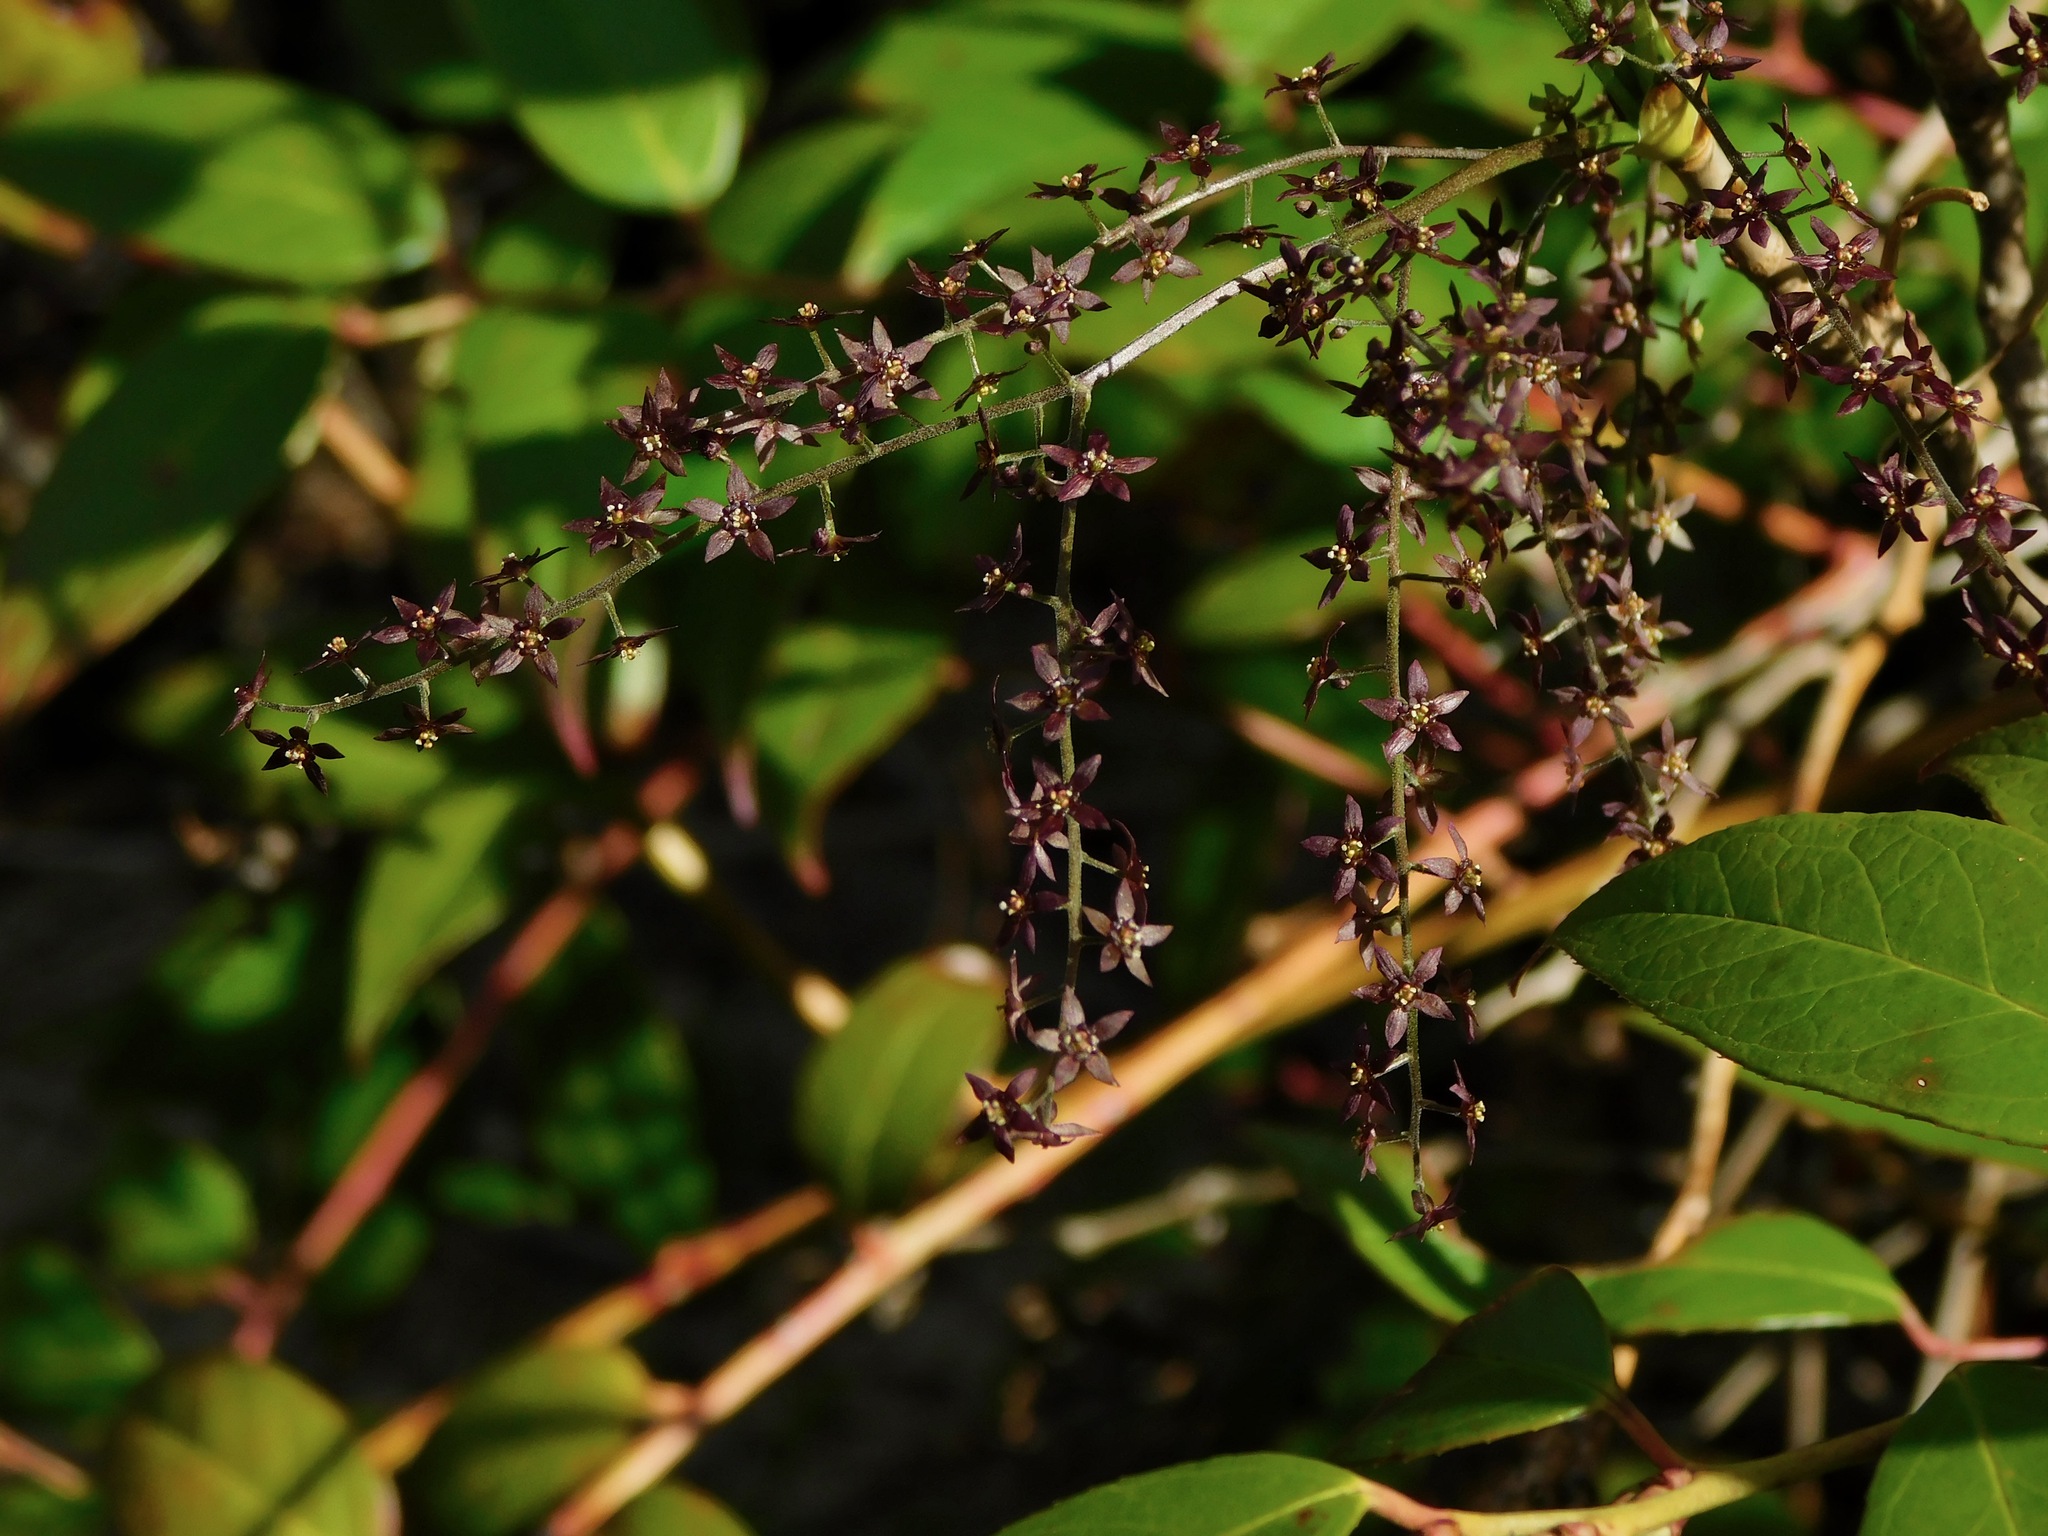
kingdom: Plantae
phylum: Tracheophyta
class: Magnoliopsida
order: Ranunculales
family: Ranunculaceae
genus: Xanthorhiza
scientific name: Xanthorhiza simplicissima
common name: Yellowroot
